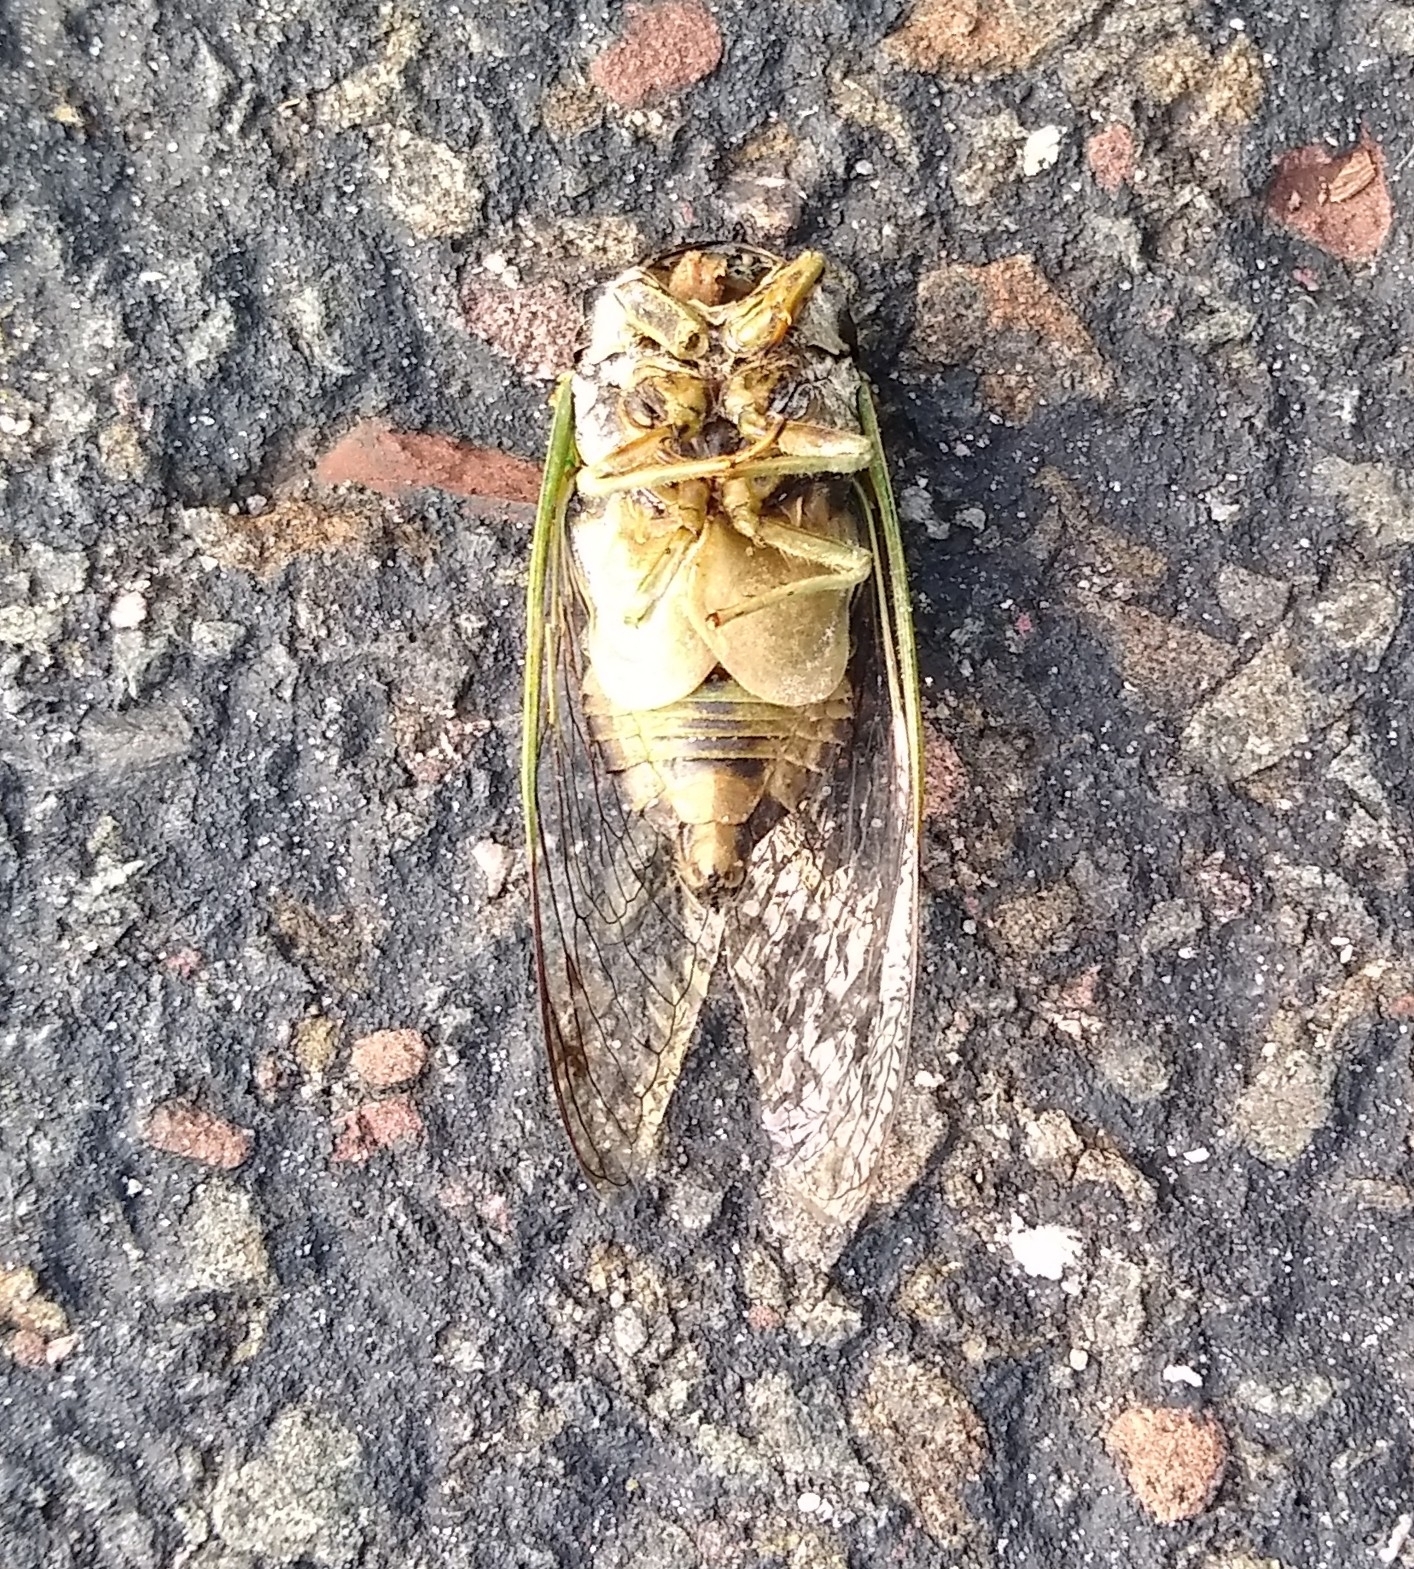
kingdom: Animalia
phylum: Arthropoda
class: Insecta
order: Hemiptera
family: Cicadidae
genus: Neotibicen
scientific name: Neotibicen tibicen
